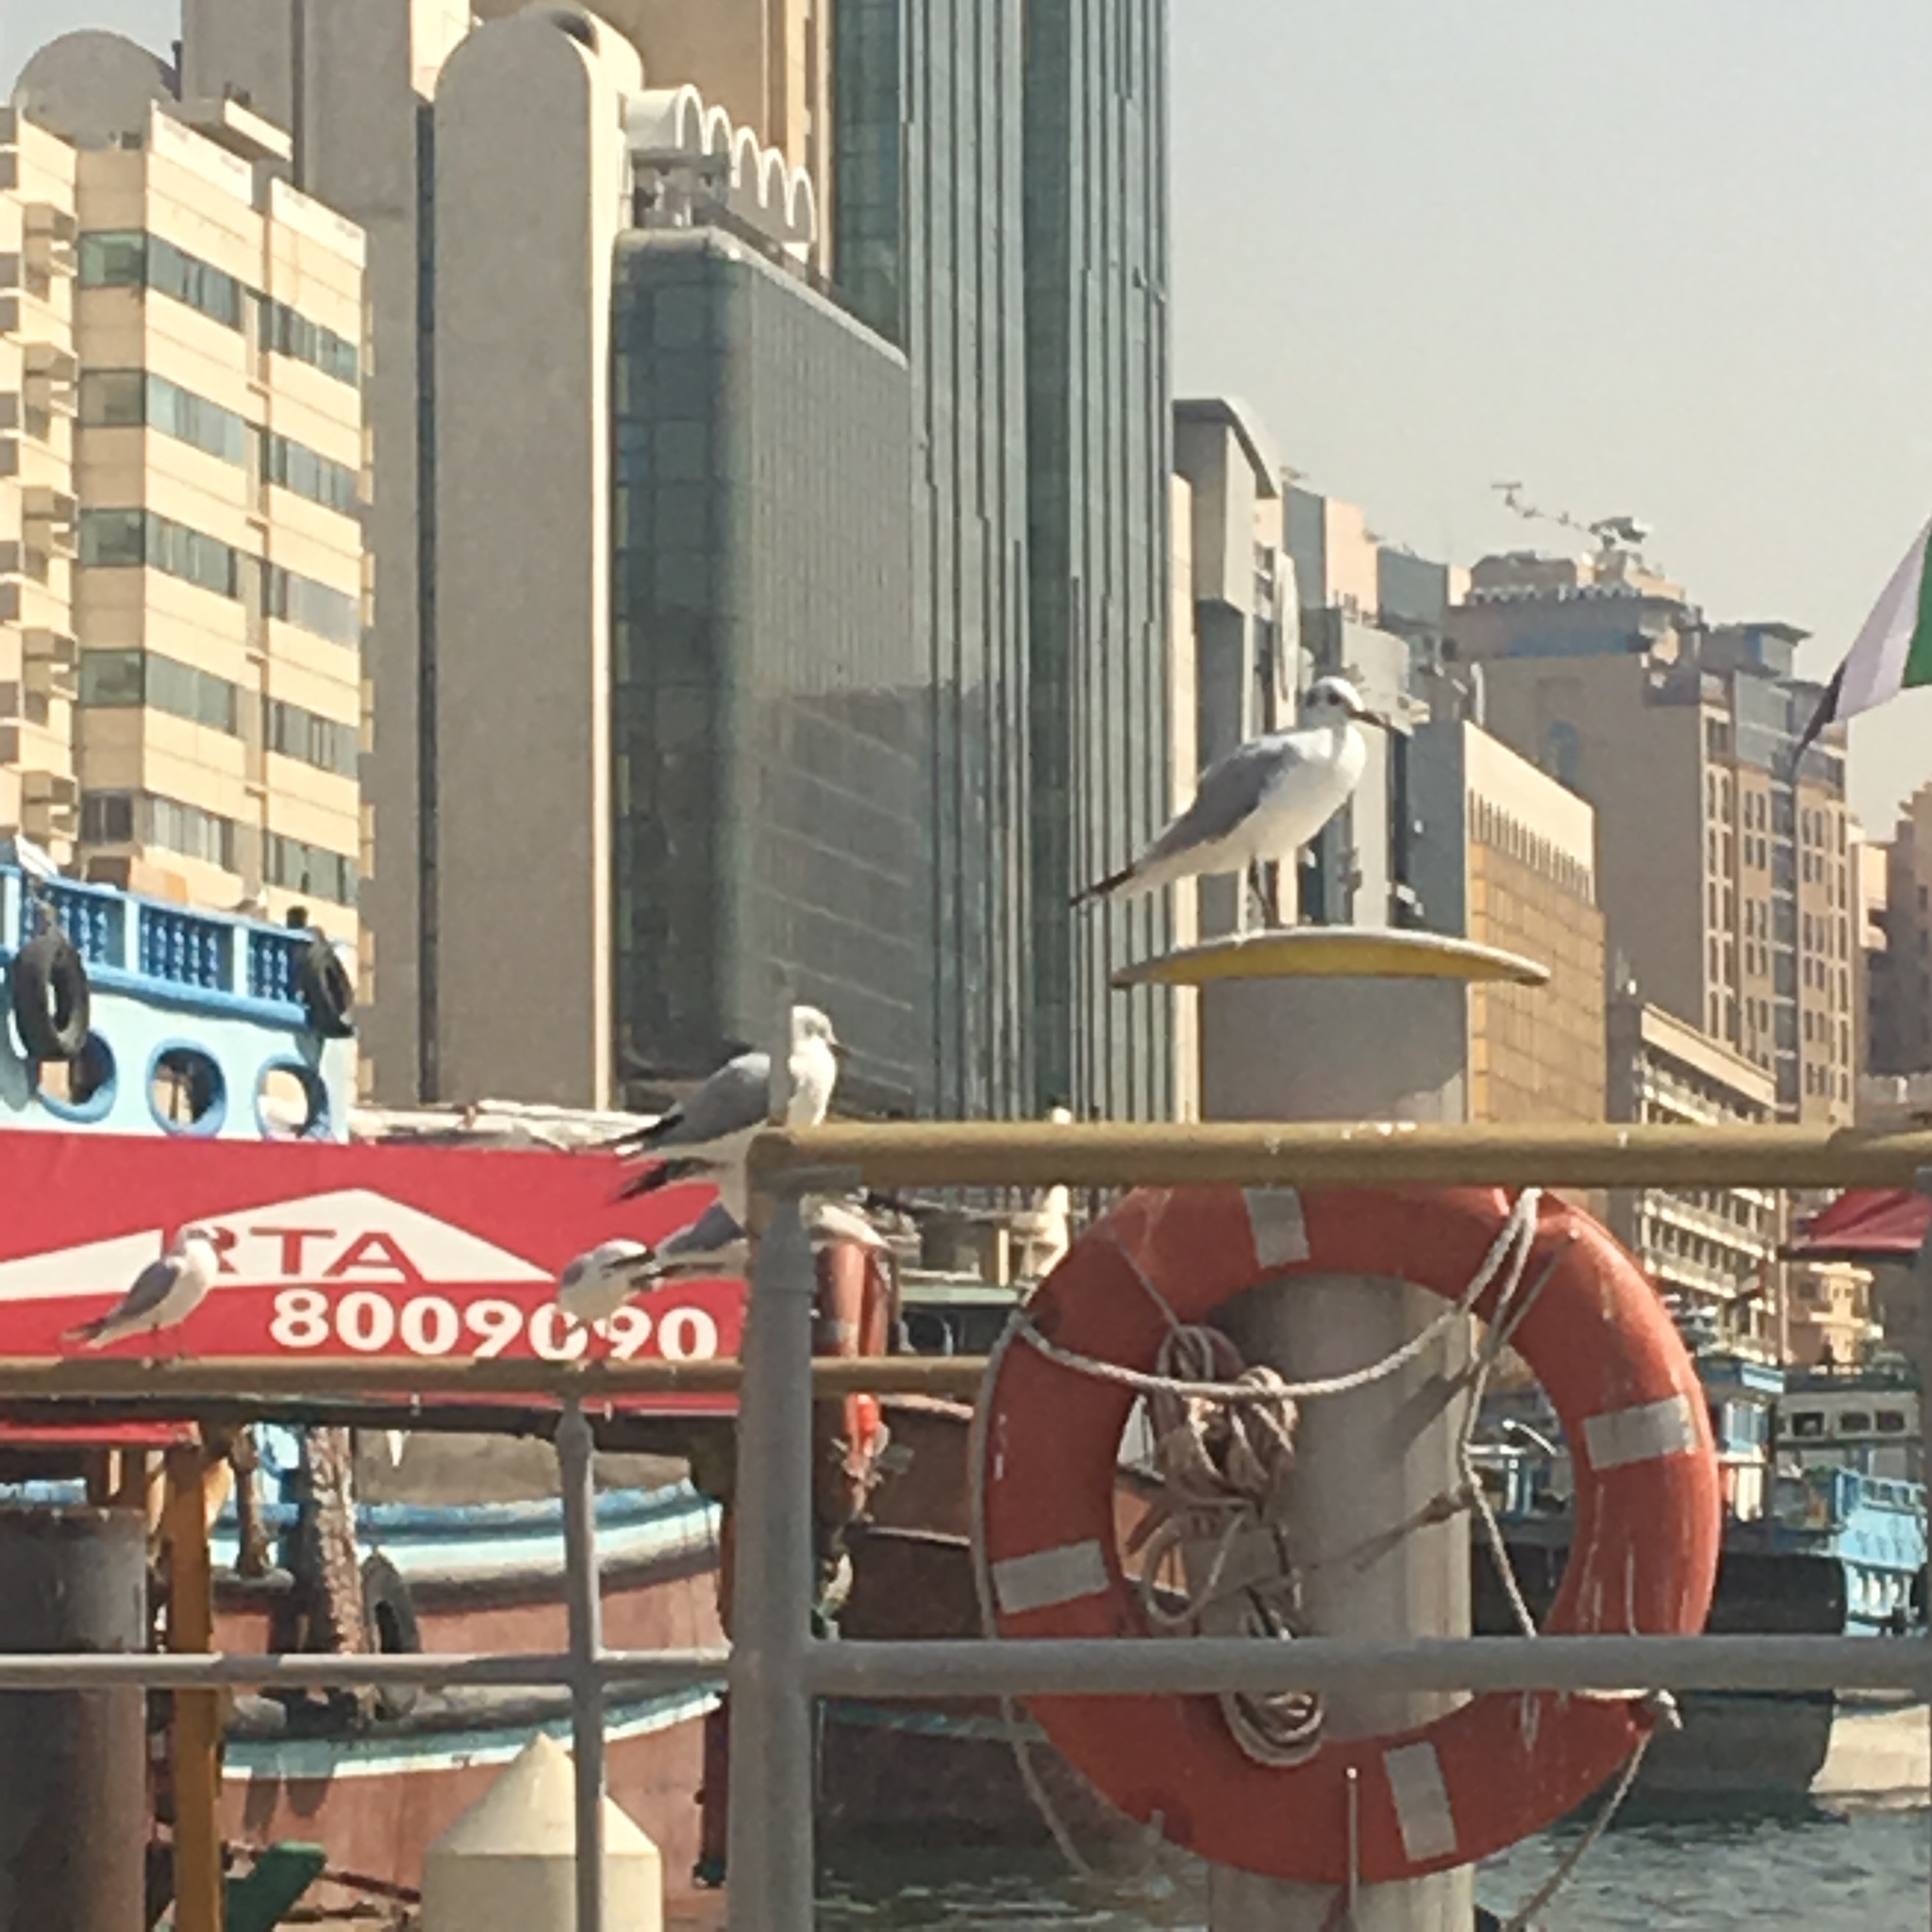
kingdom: Animalia
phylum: Chordata
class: Aves
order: Charadriiformes
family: Laridae
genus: Chroicocephalus
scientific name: Chroicocephalus ridibundus
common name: Black-headed gull
